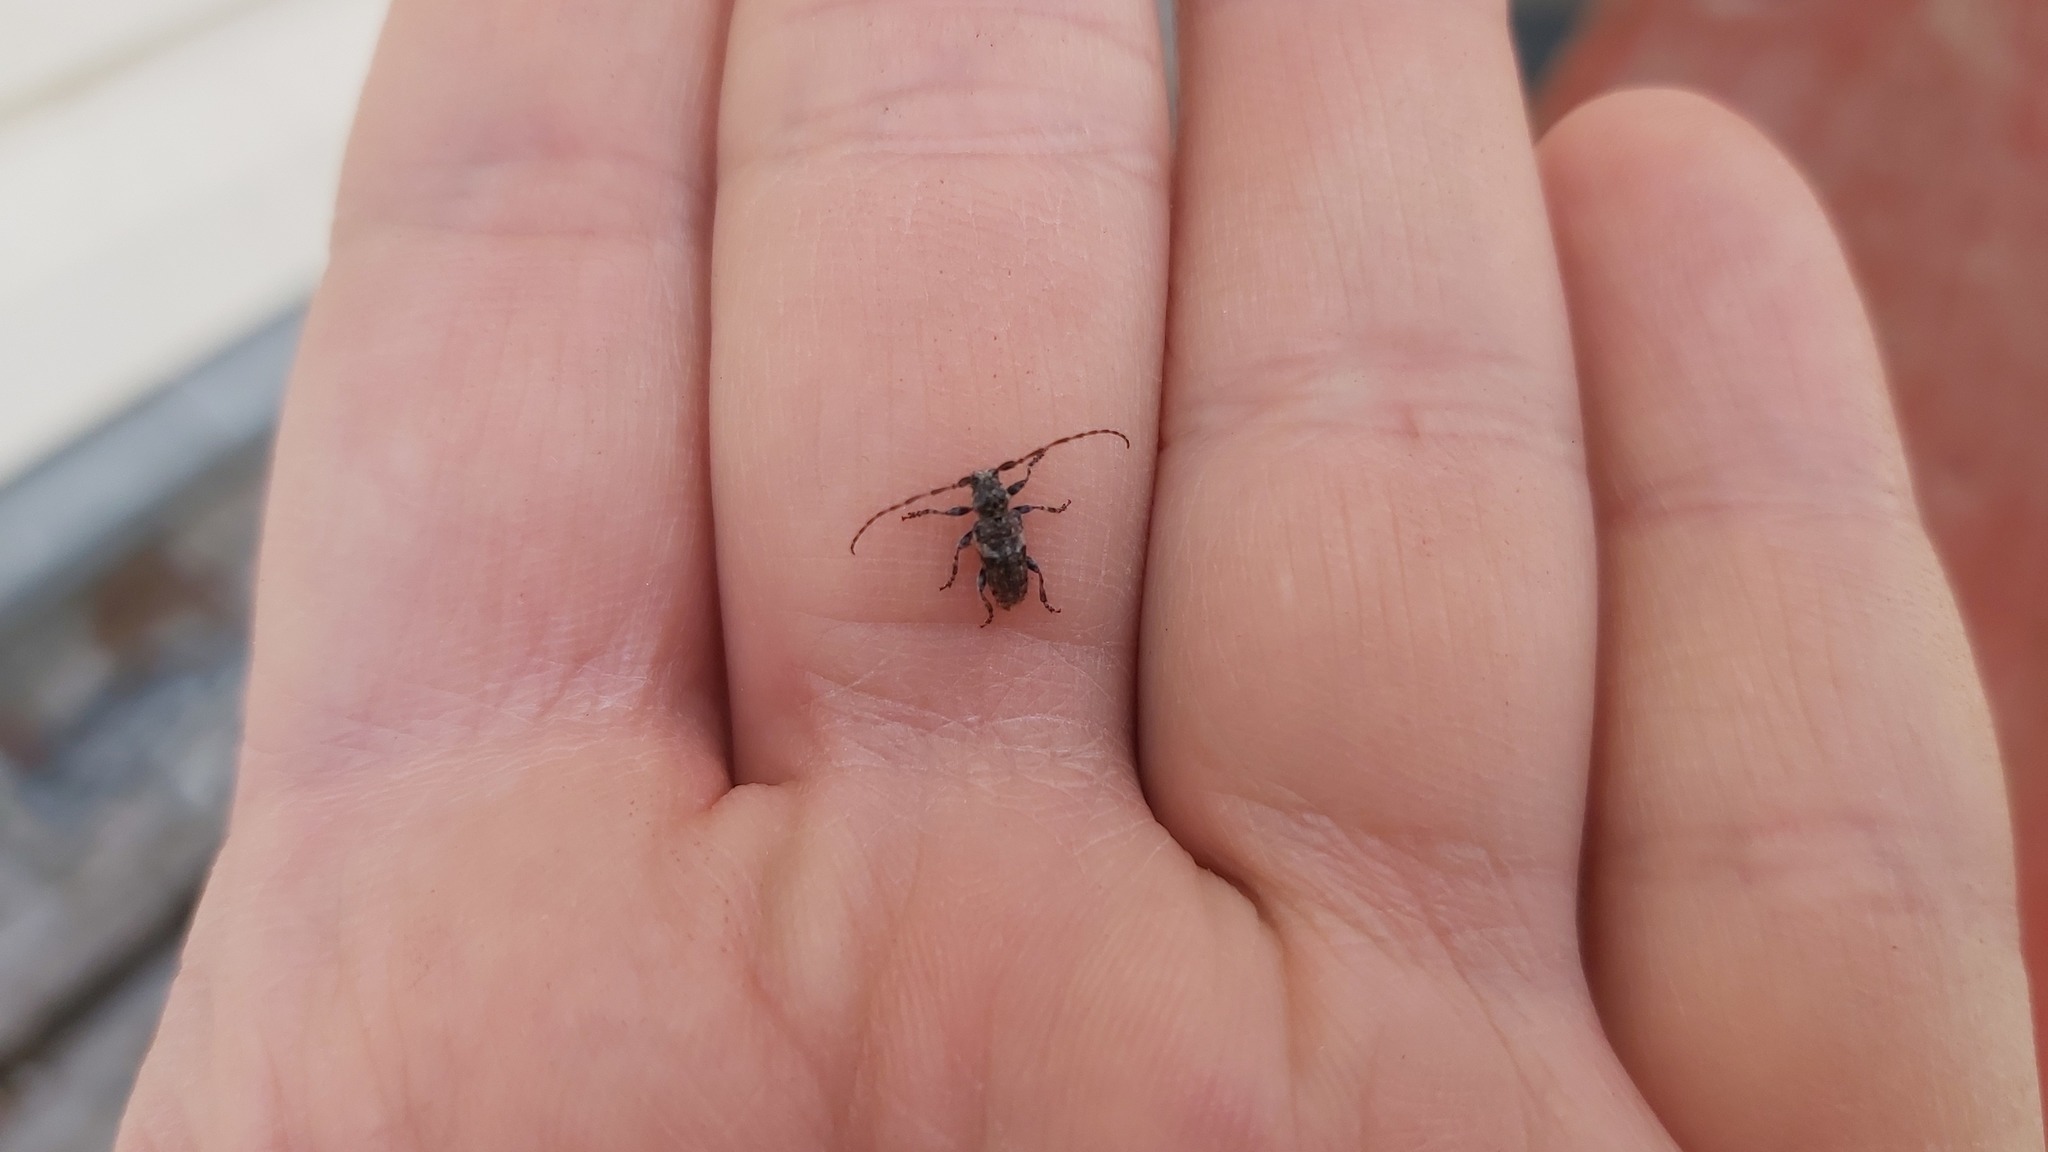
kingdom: Animalia
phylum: Arthropoda
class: Insecta
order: Coleoptera
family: Cerambycidae
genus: Pogonocherus
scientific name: Pogonocherus fasciculatus
